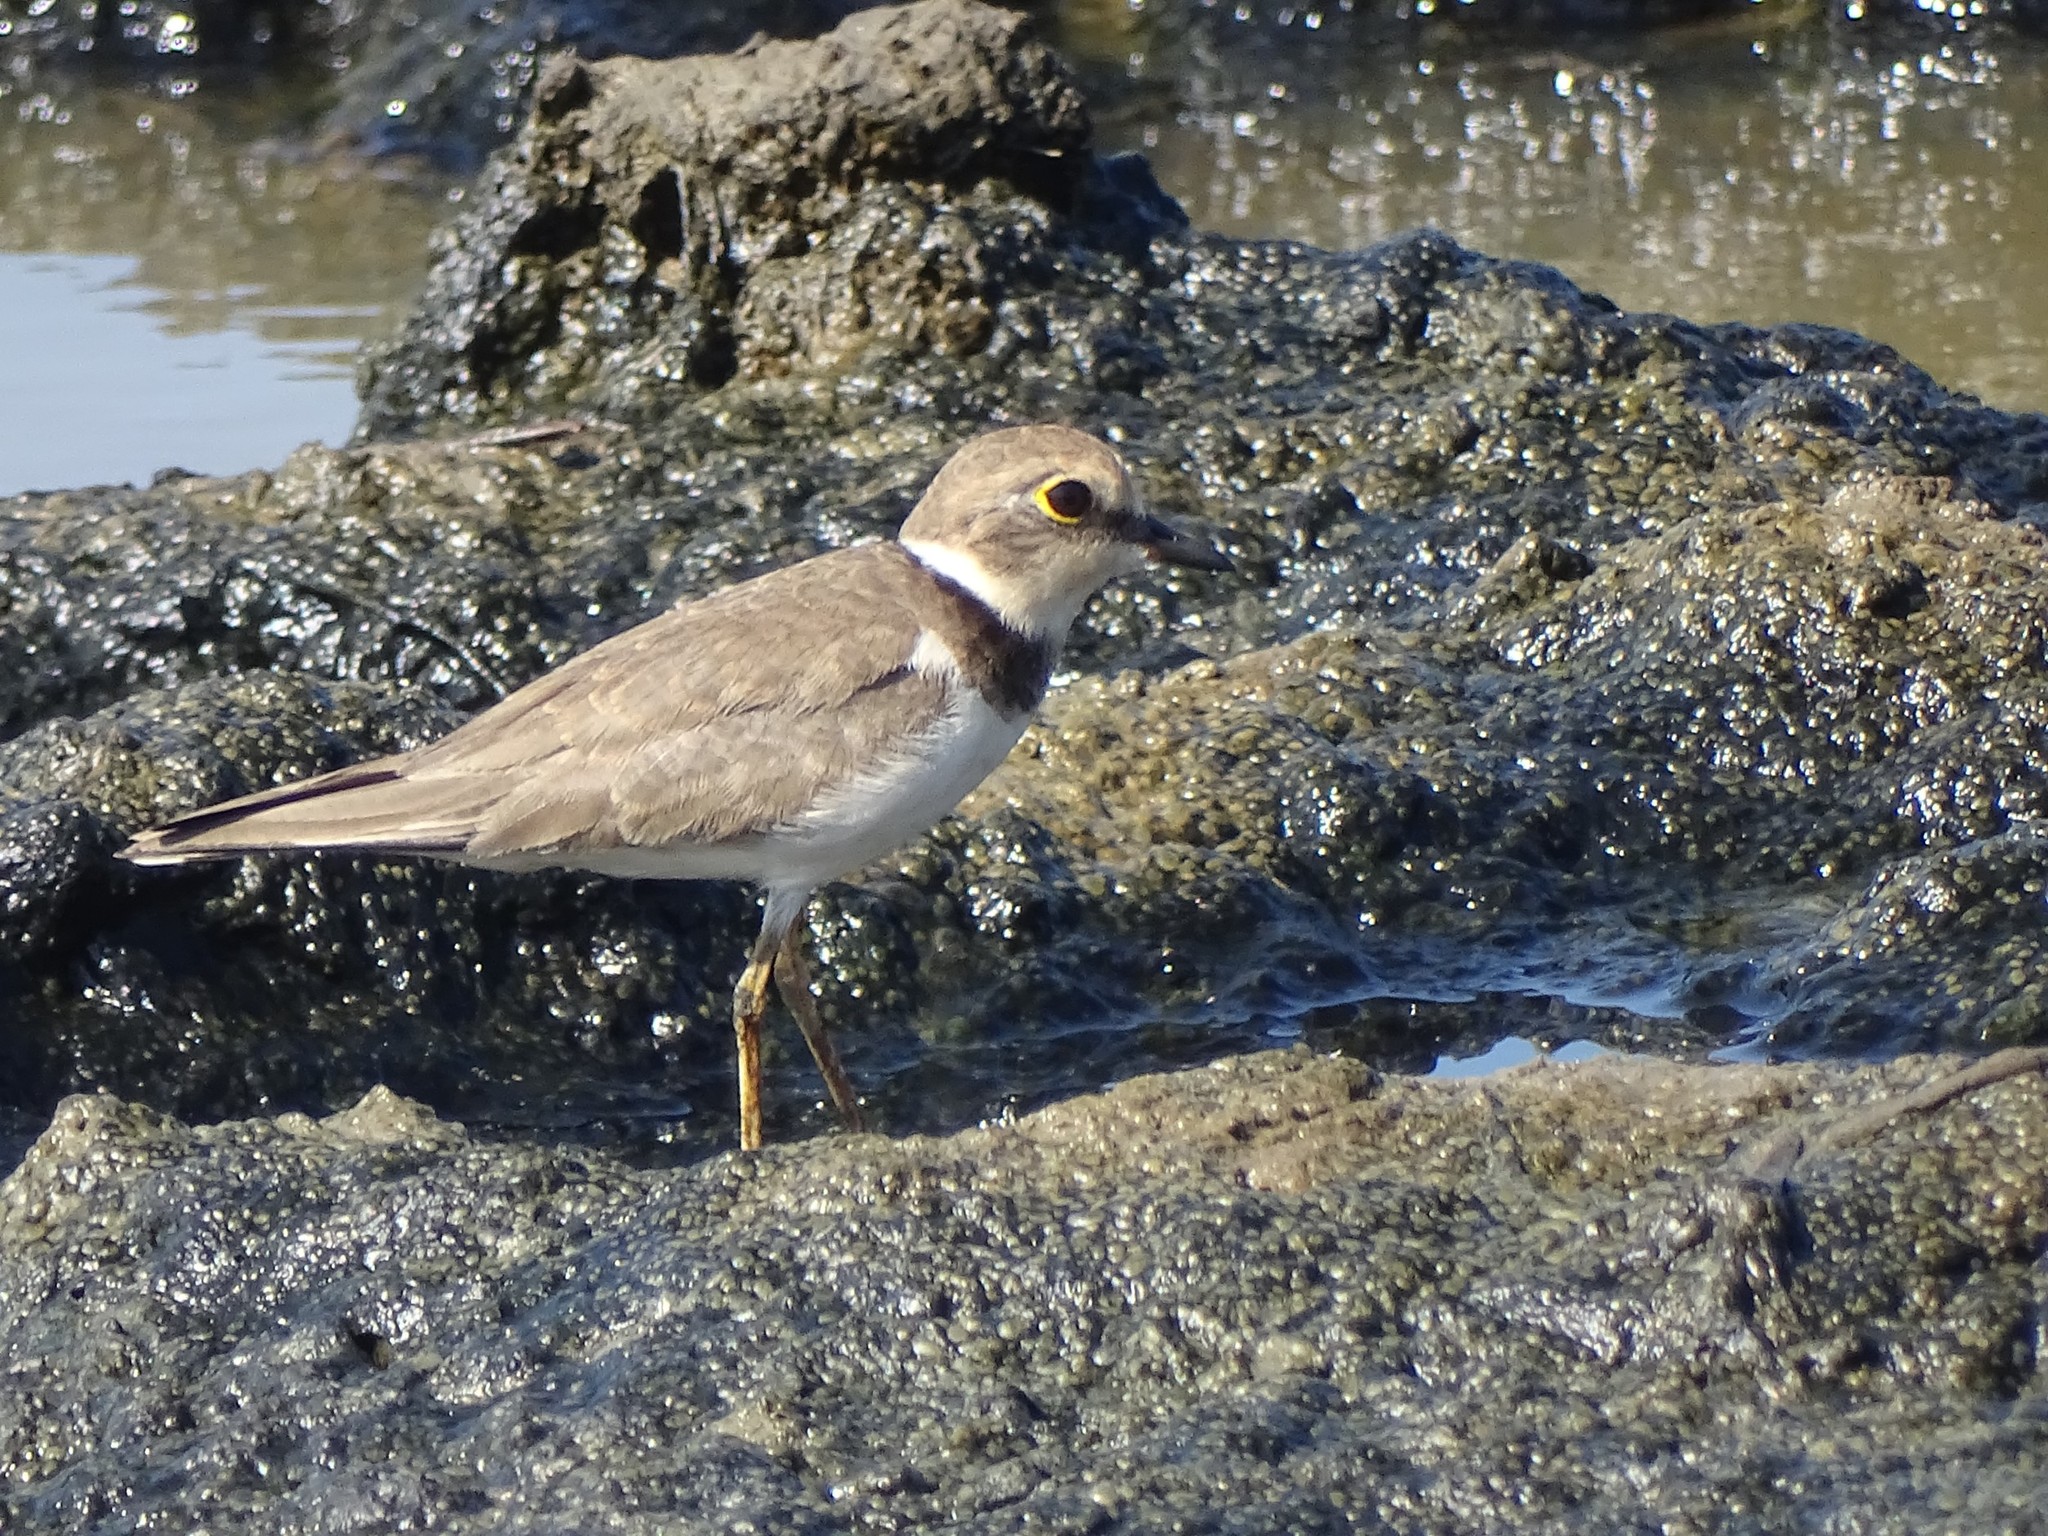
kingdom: Animalia
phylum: Chordata
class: Aves
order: Charadriiformes
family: Charadriidae
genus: Charadrius
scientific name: Charadrius dubius
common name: Little ringed plover
